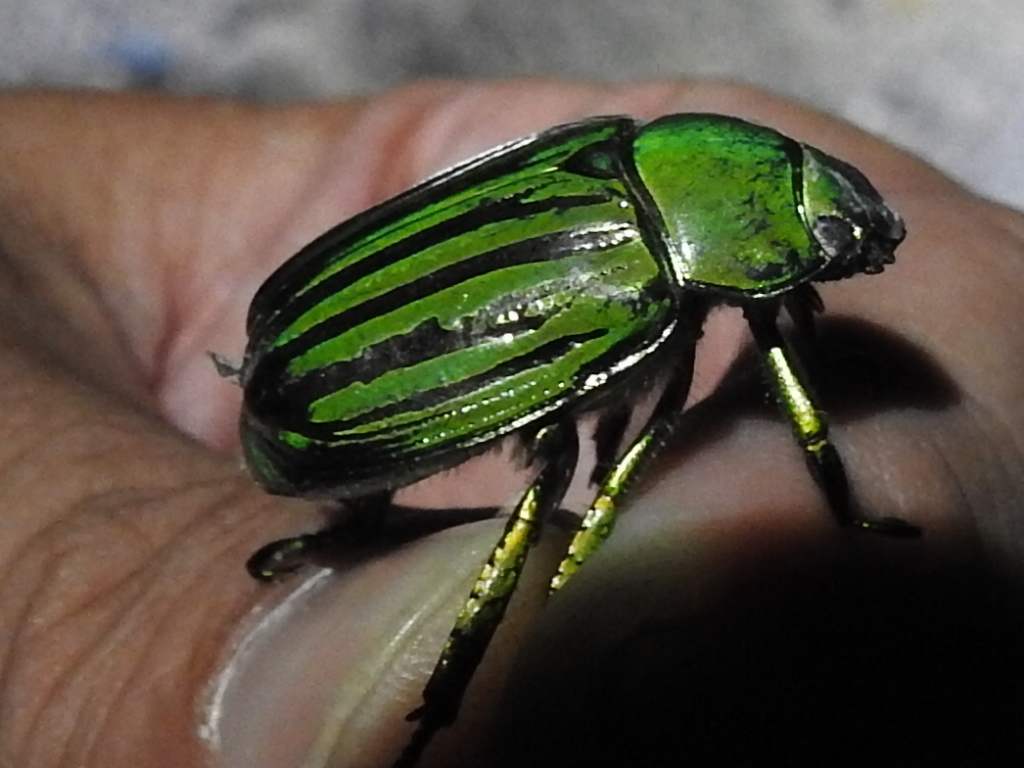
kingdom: Animalia
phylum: Arthropoda
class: Insecta
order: Coleoptera
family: Scarabaeidae
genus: Chrysina
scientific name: Chrysina gloriosa
